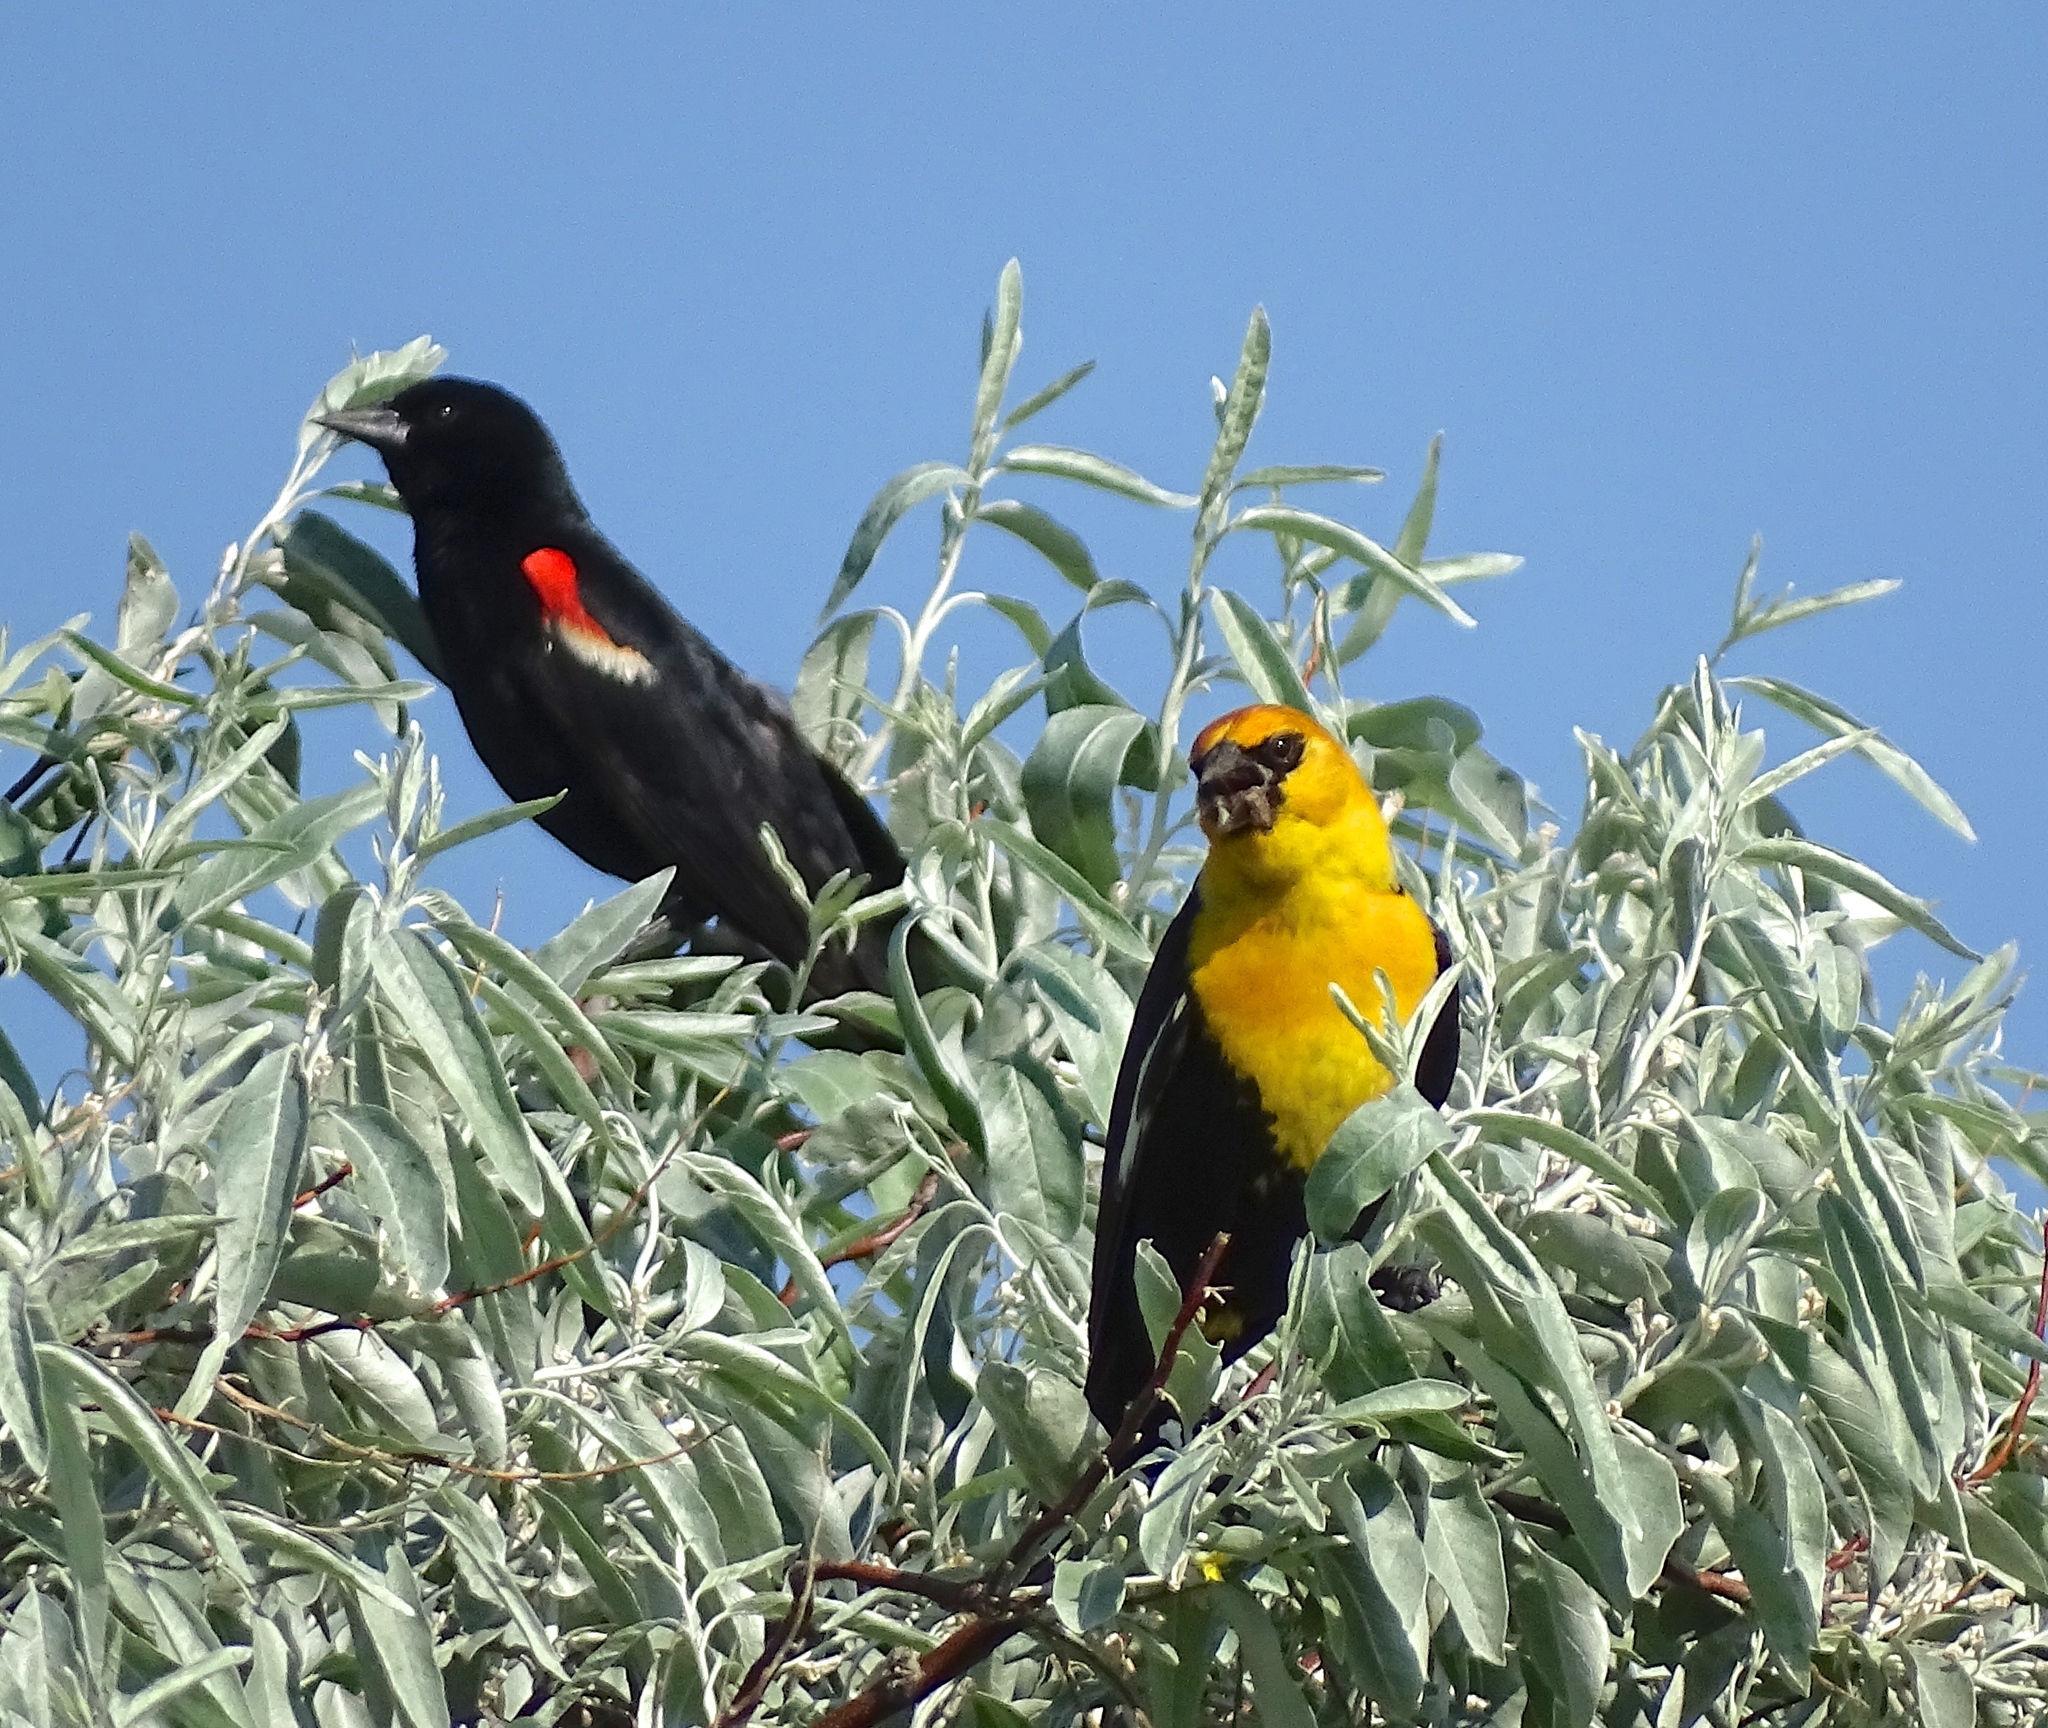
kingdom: Animalia
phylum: Chordata
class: Aves
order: Passeriformes
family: Icteridae
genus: Agelaius
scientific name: Agelaius phoeniceus
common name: Red-winged blackbird
